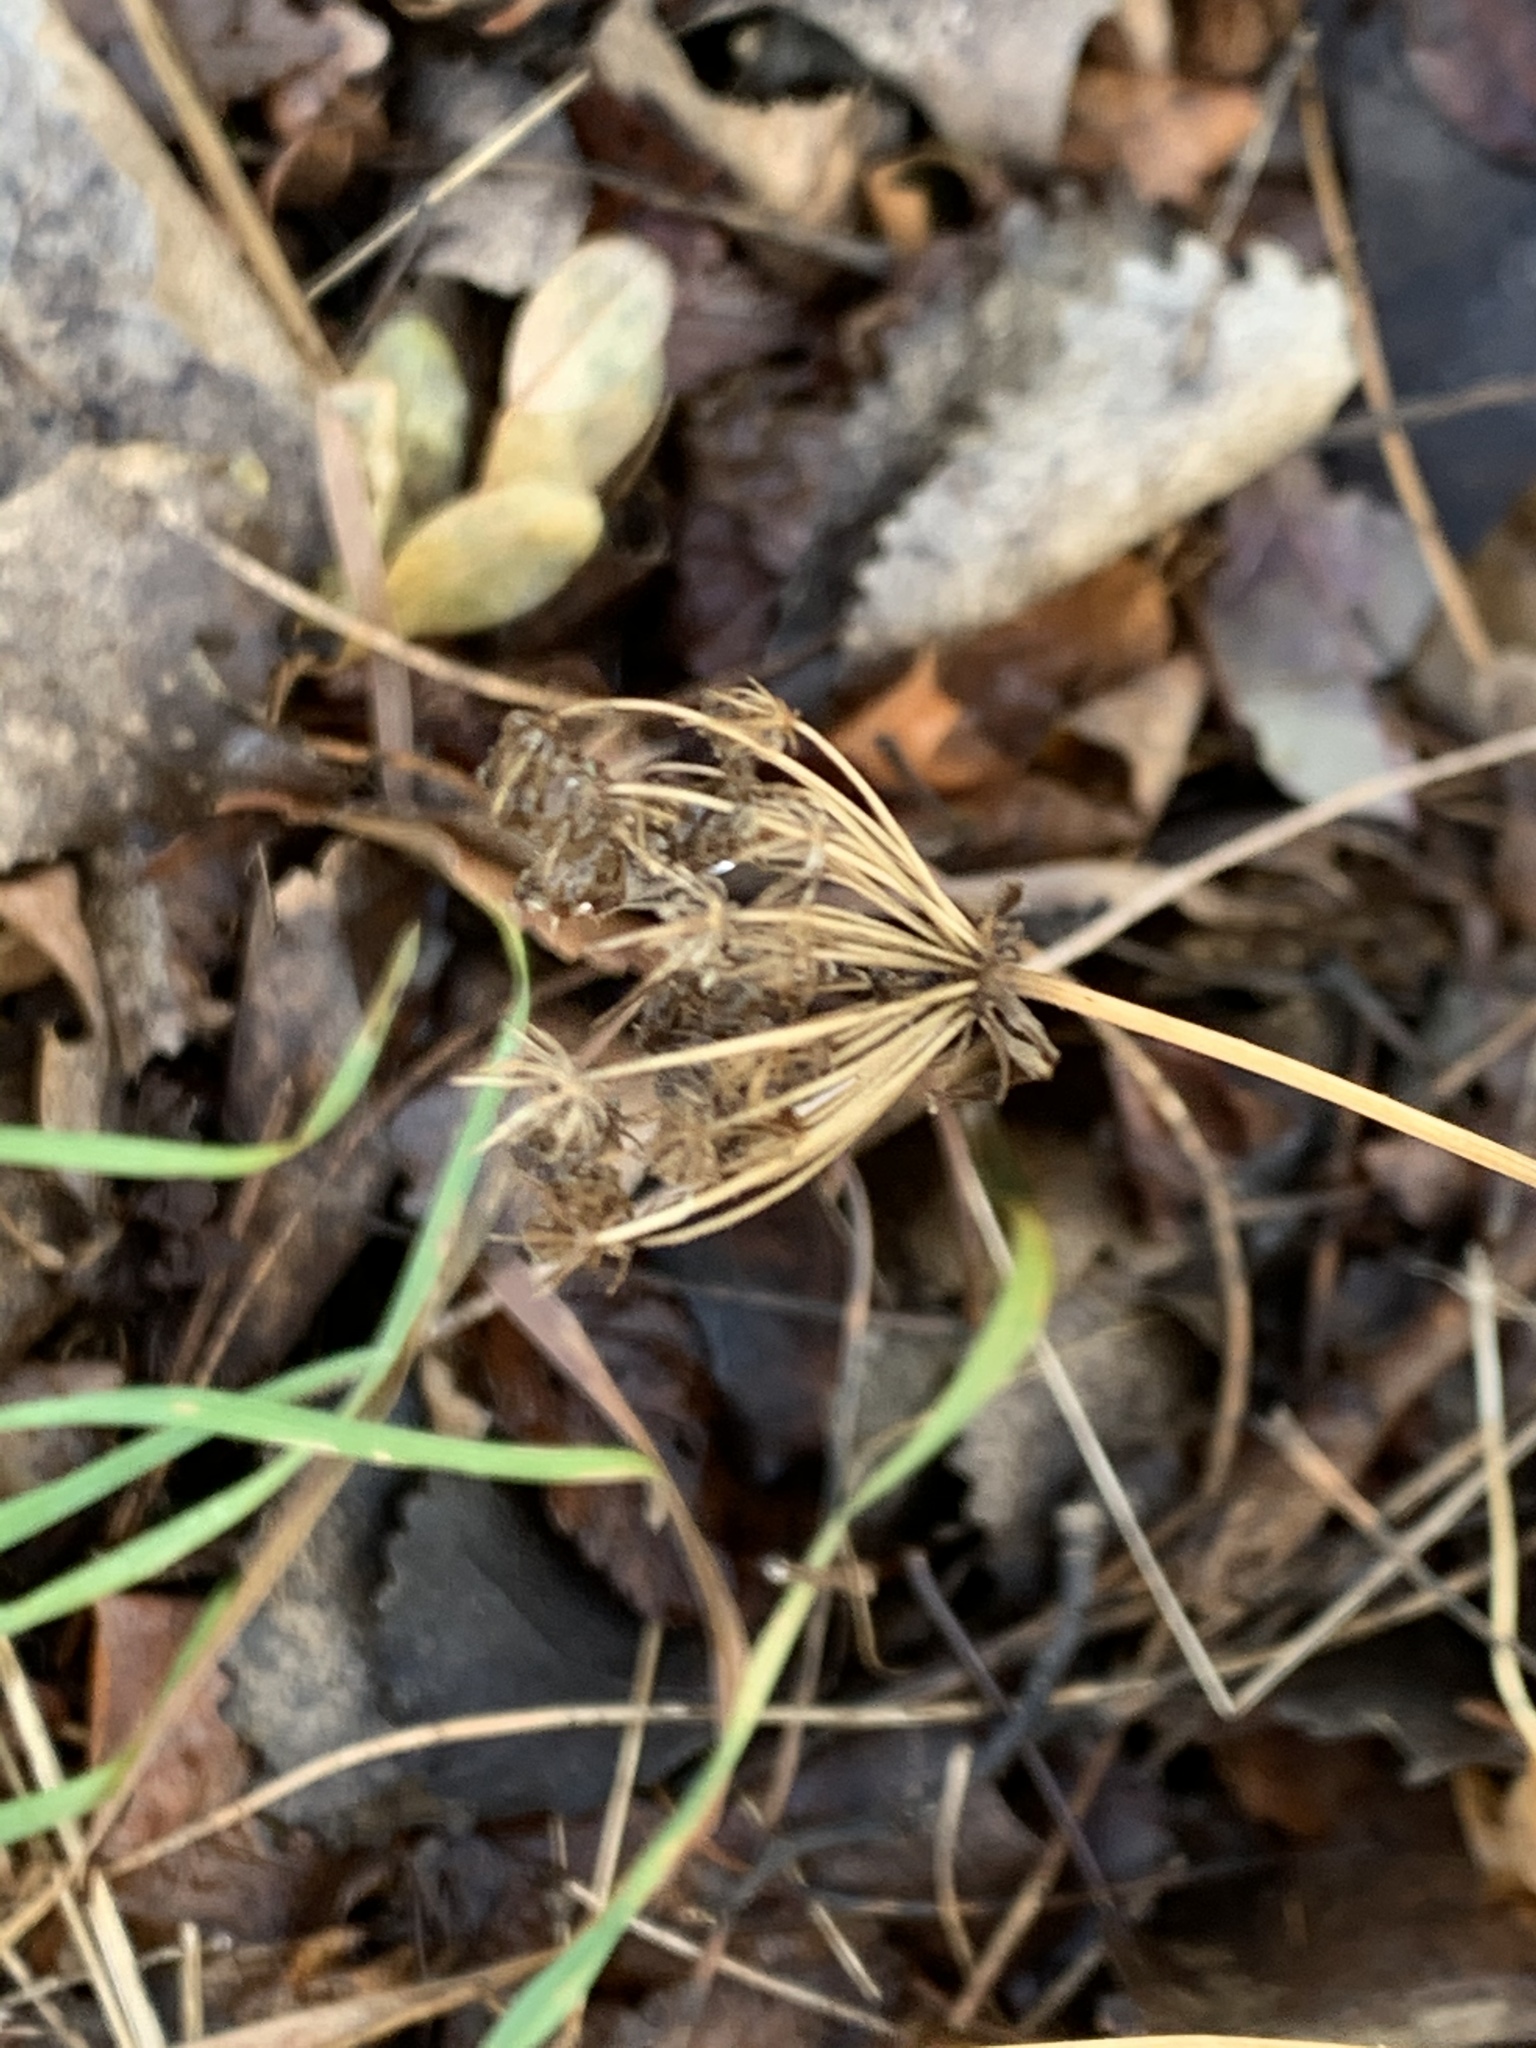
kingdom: Plantae
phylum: Tracheophyta
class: Magnoliopsida
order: Apiales
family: Apiaceae
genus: Daucus
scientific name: Daucus carota
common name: Wild carrot
